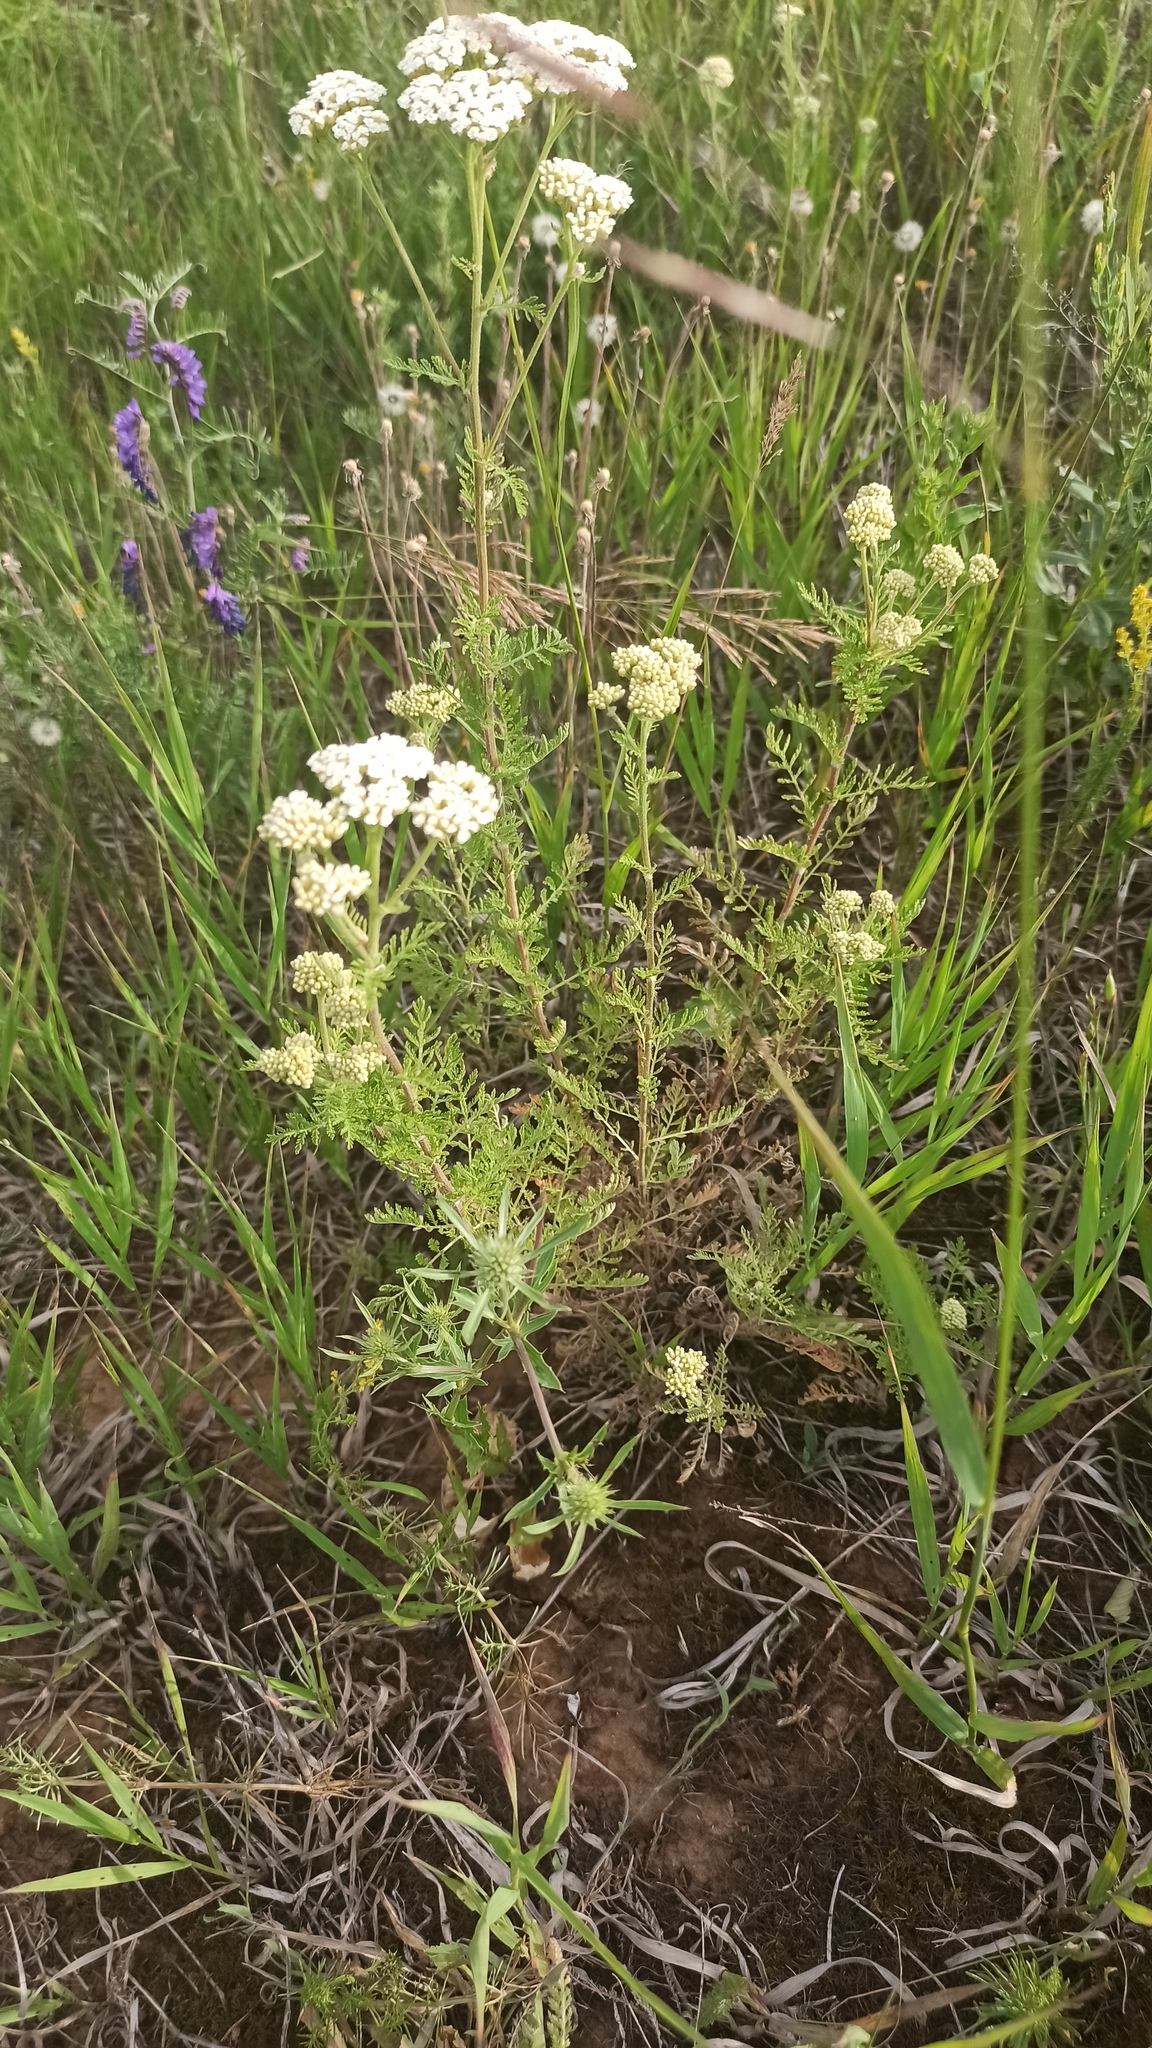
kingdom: Plantae
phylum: Tracheophyta
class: Magnoliopsida
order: Asterales
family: Asteraceae
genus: Achillea
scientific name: Achillea nobilis
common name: Noble yarrow
